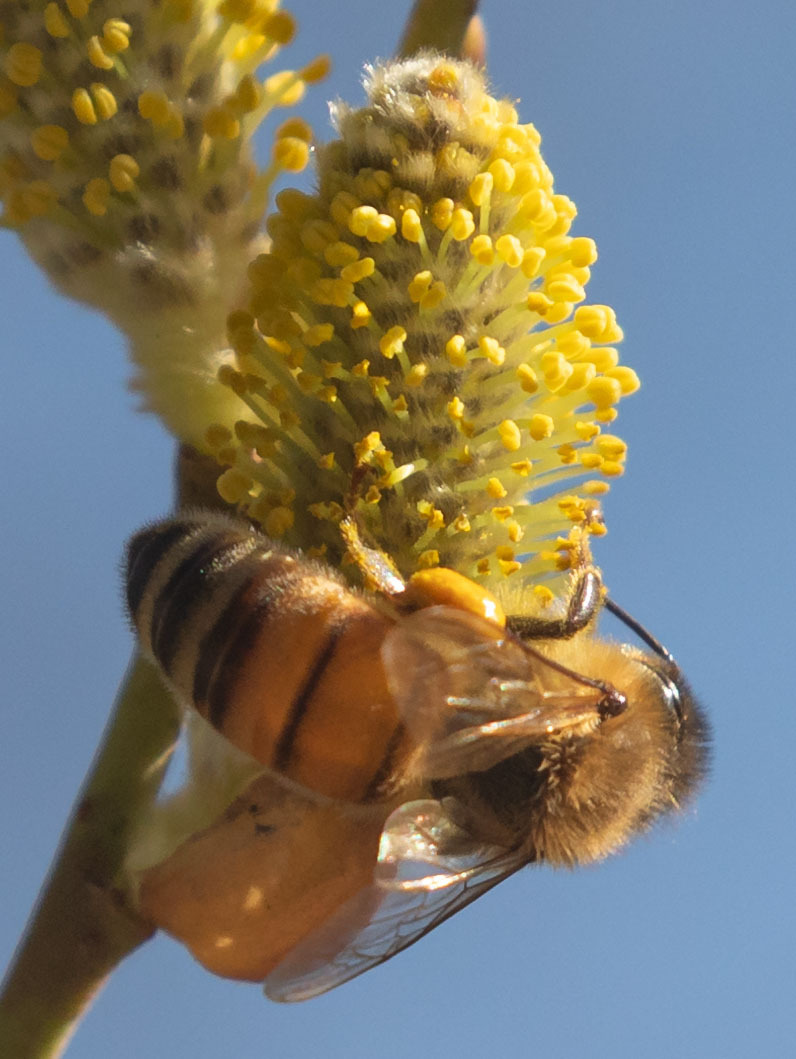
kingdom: Animalia
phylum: Arthropoda
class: Insecta
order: Hymenoptera
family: Apidae
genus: Apis
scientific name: Apis mellifera
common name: Honey bee
